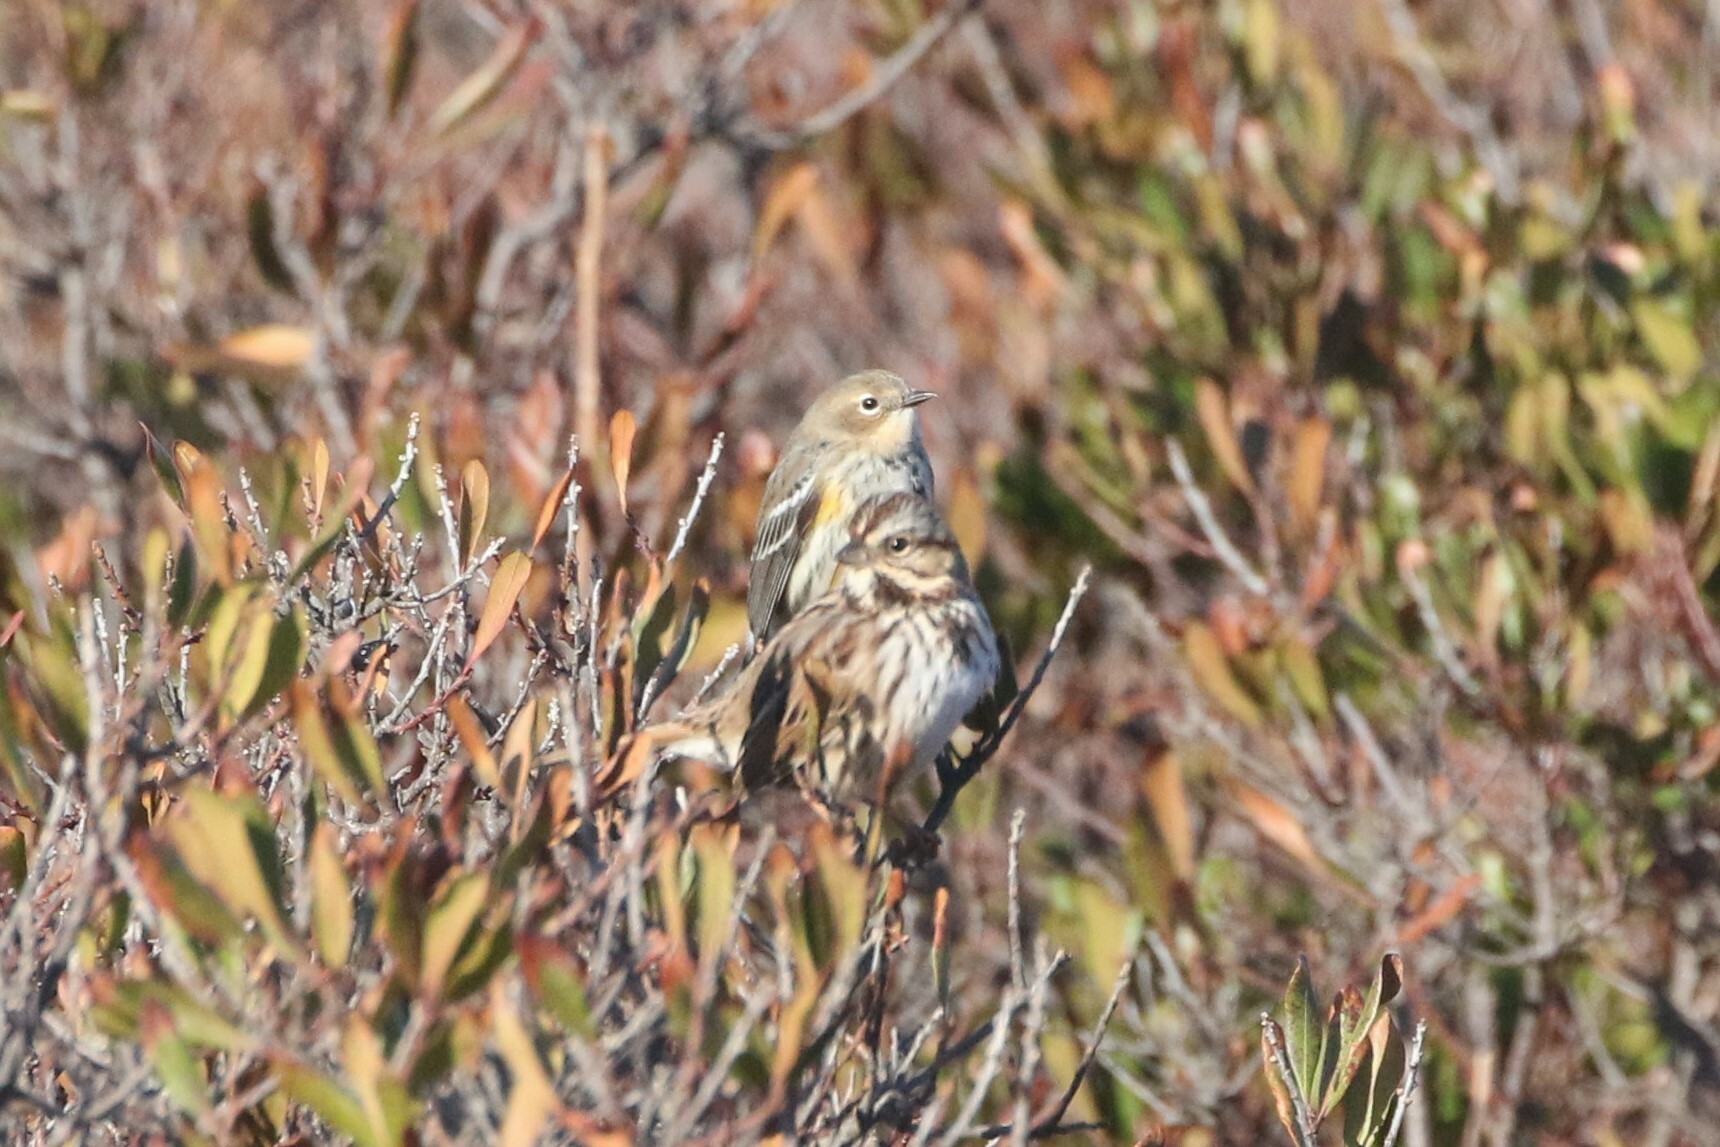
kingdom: Animalia
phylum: Chordata
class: Aves
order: Passeriformes
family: Parulidae
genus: Setophaga
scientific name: Setophaga coronata
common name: Myrtle warbler
